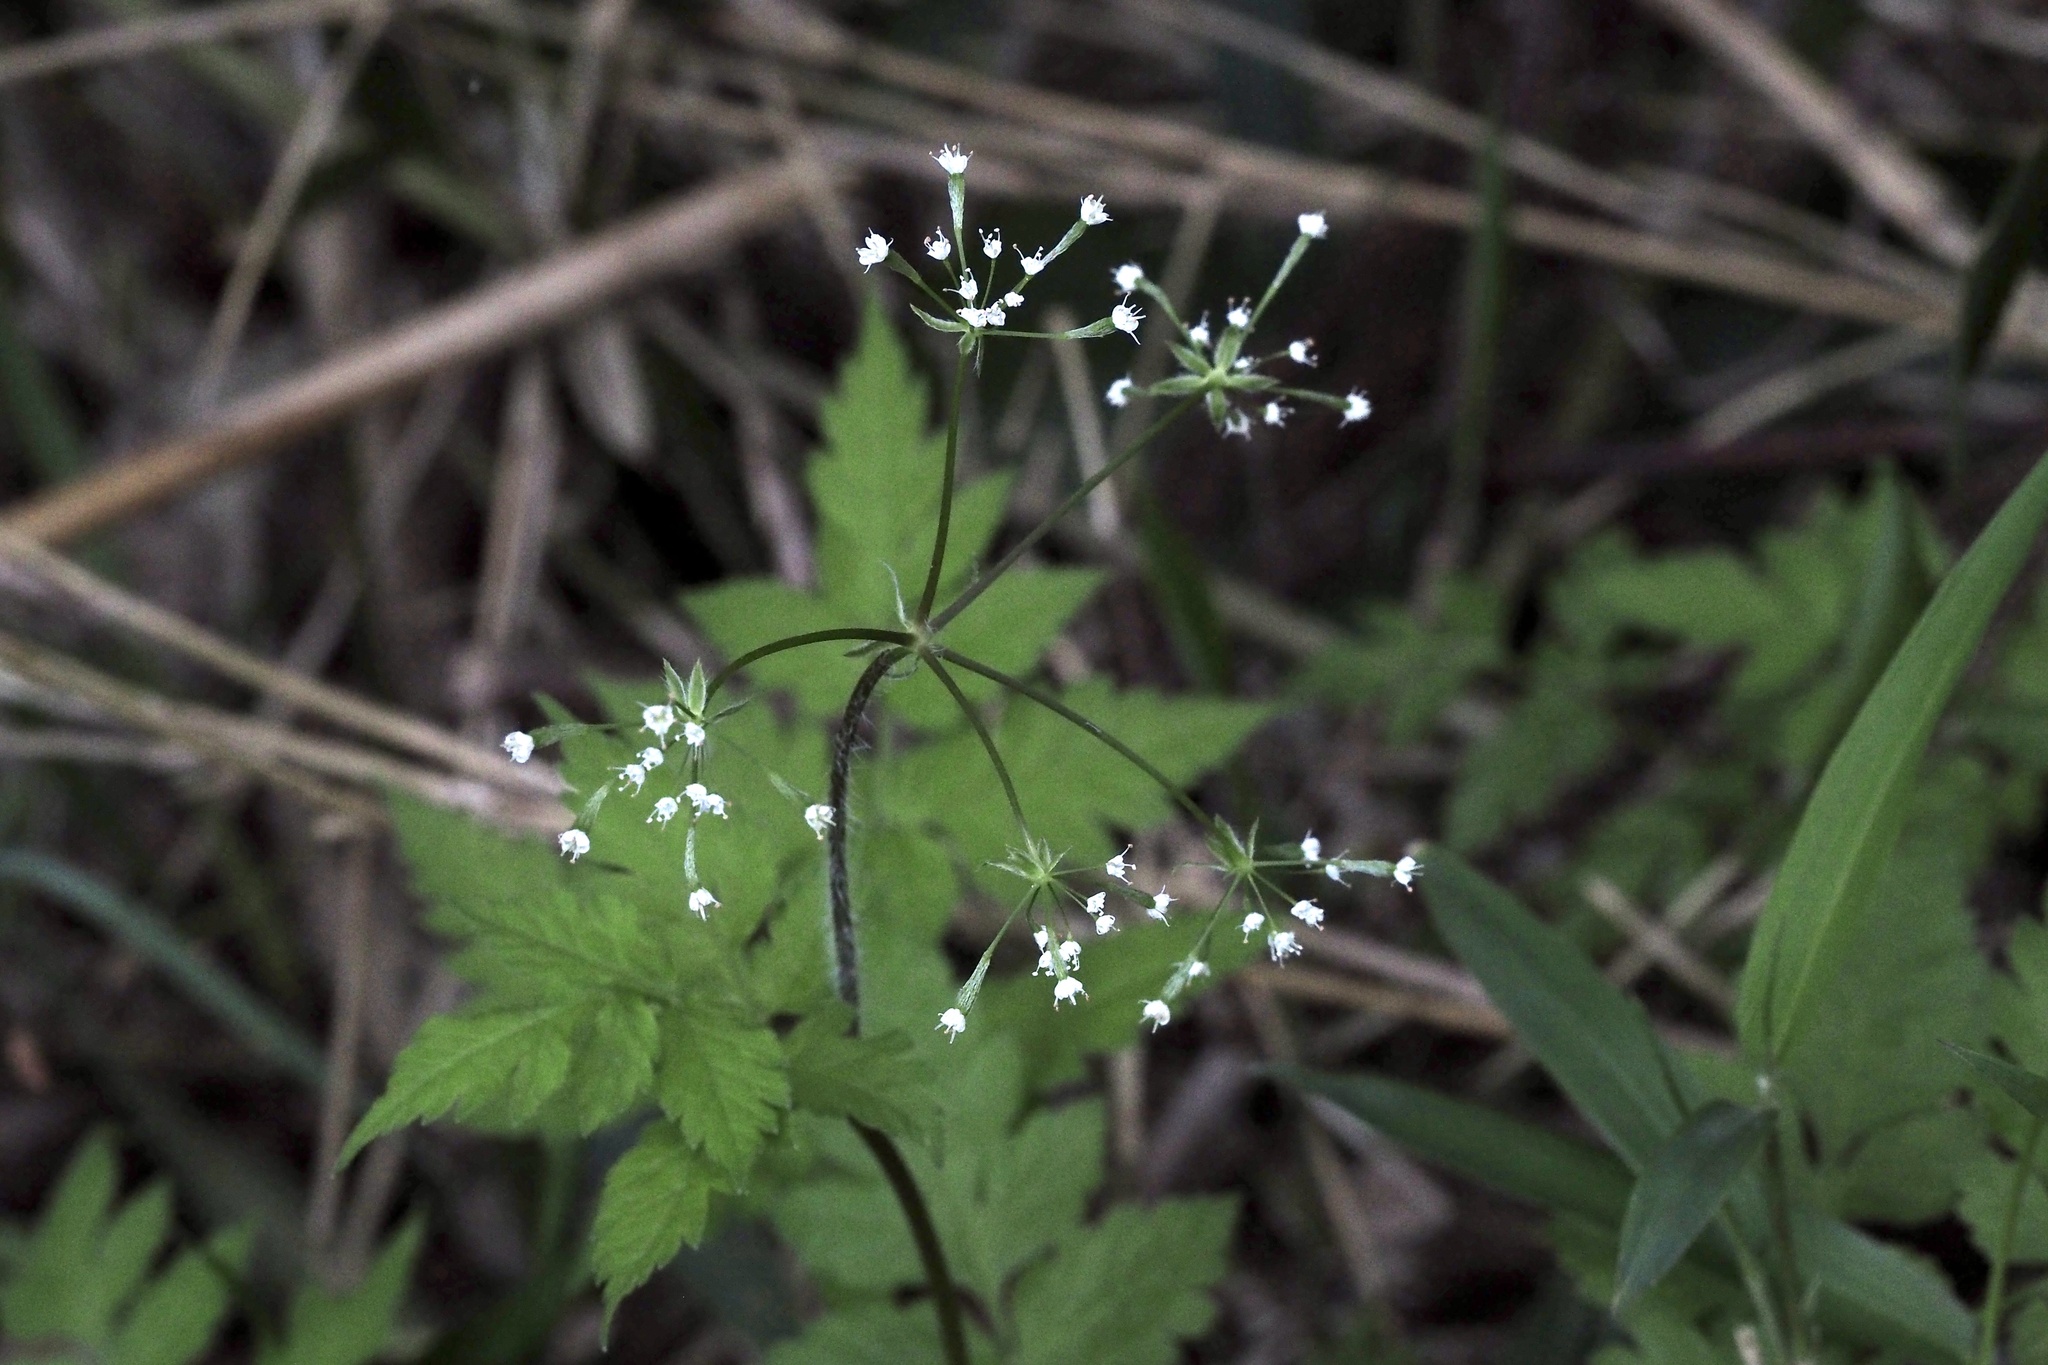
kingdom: Plantae
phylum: Tracheophyta
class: Magnoliopsida
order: Apiales
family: Apiaceae
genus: Osmorhiza
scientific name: Osmorhiza aristata
